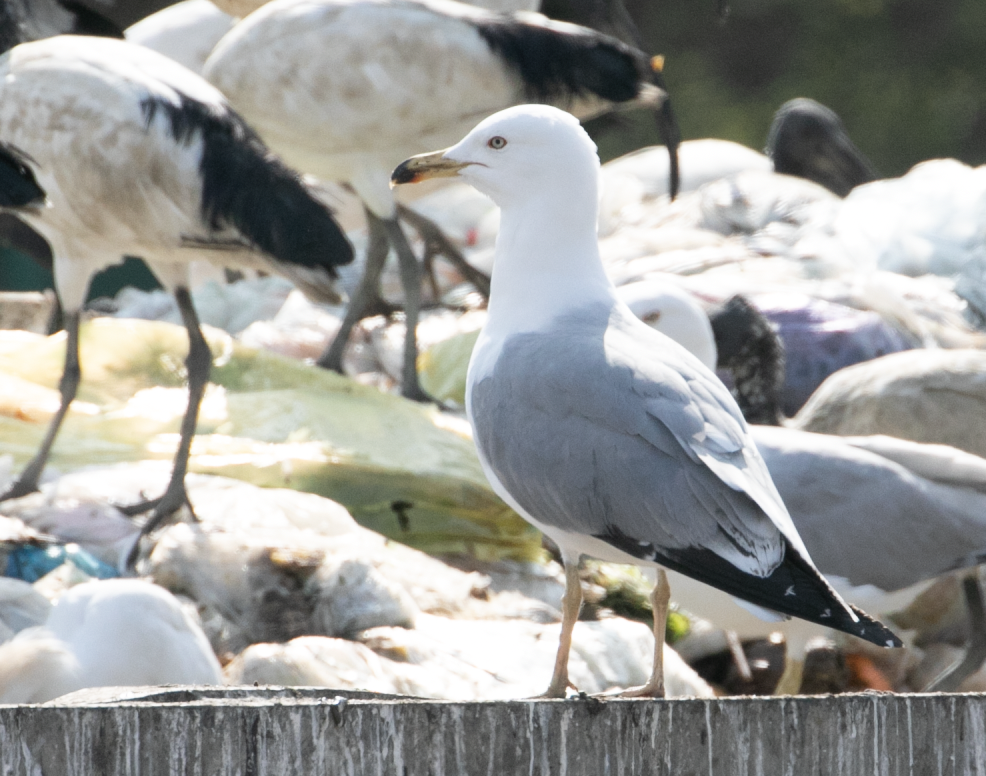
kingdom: Animalia
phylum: Chordata
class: Aves
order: Charadriiformes
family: Laridae
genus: Larus
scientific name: Larus michahellis
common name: Yellow-legged gull
